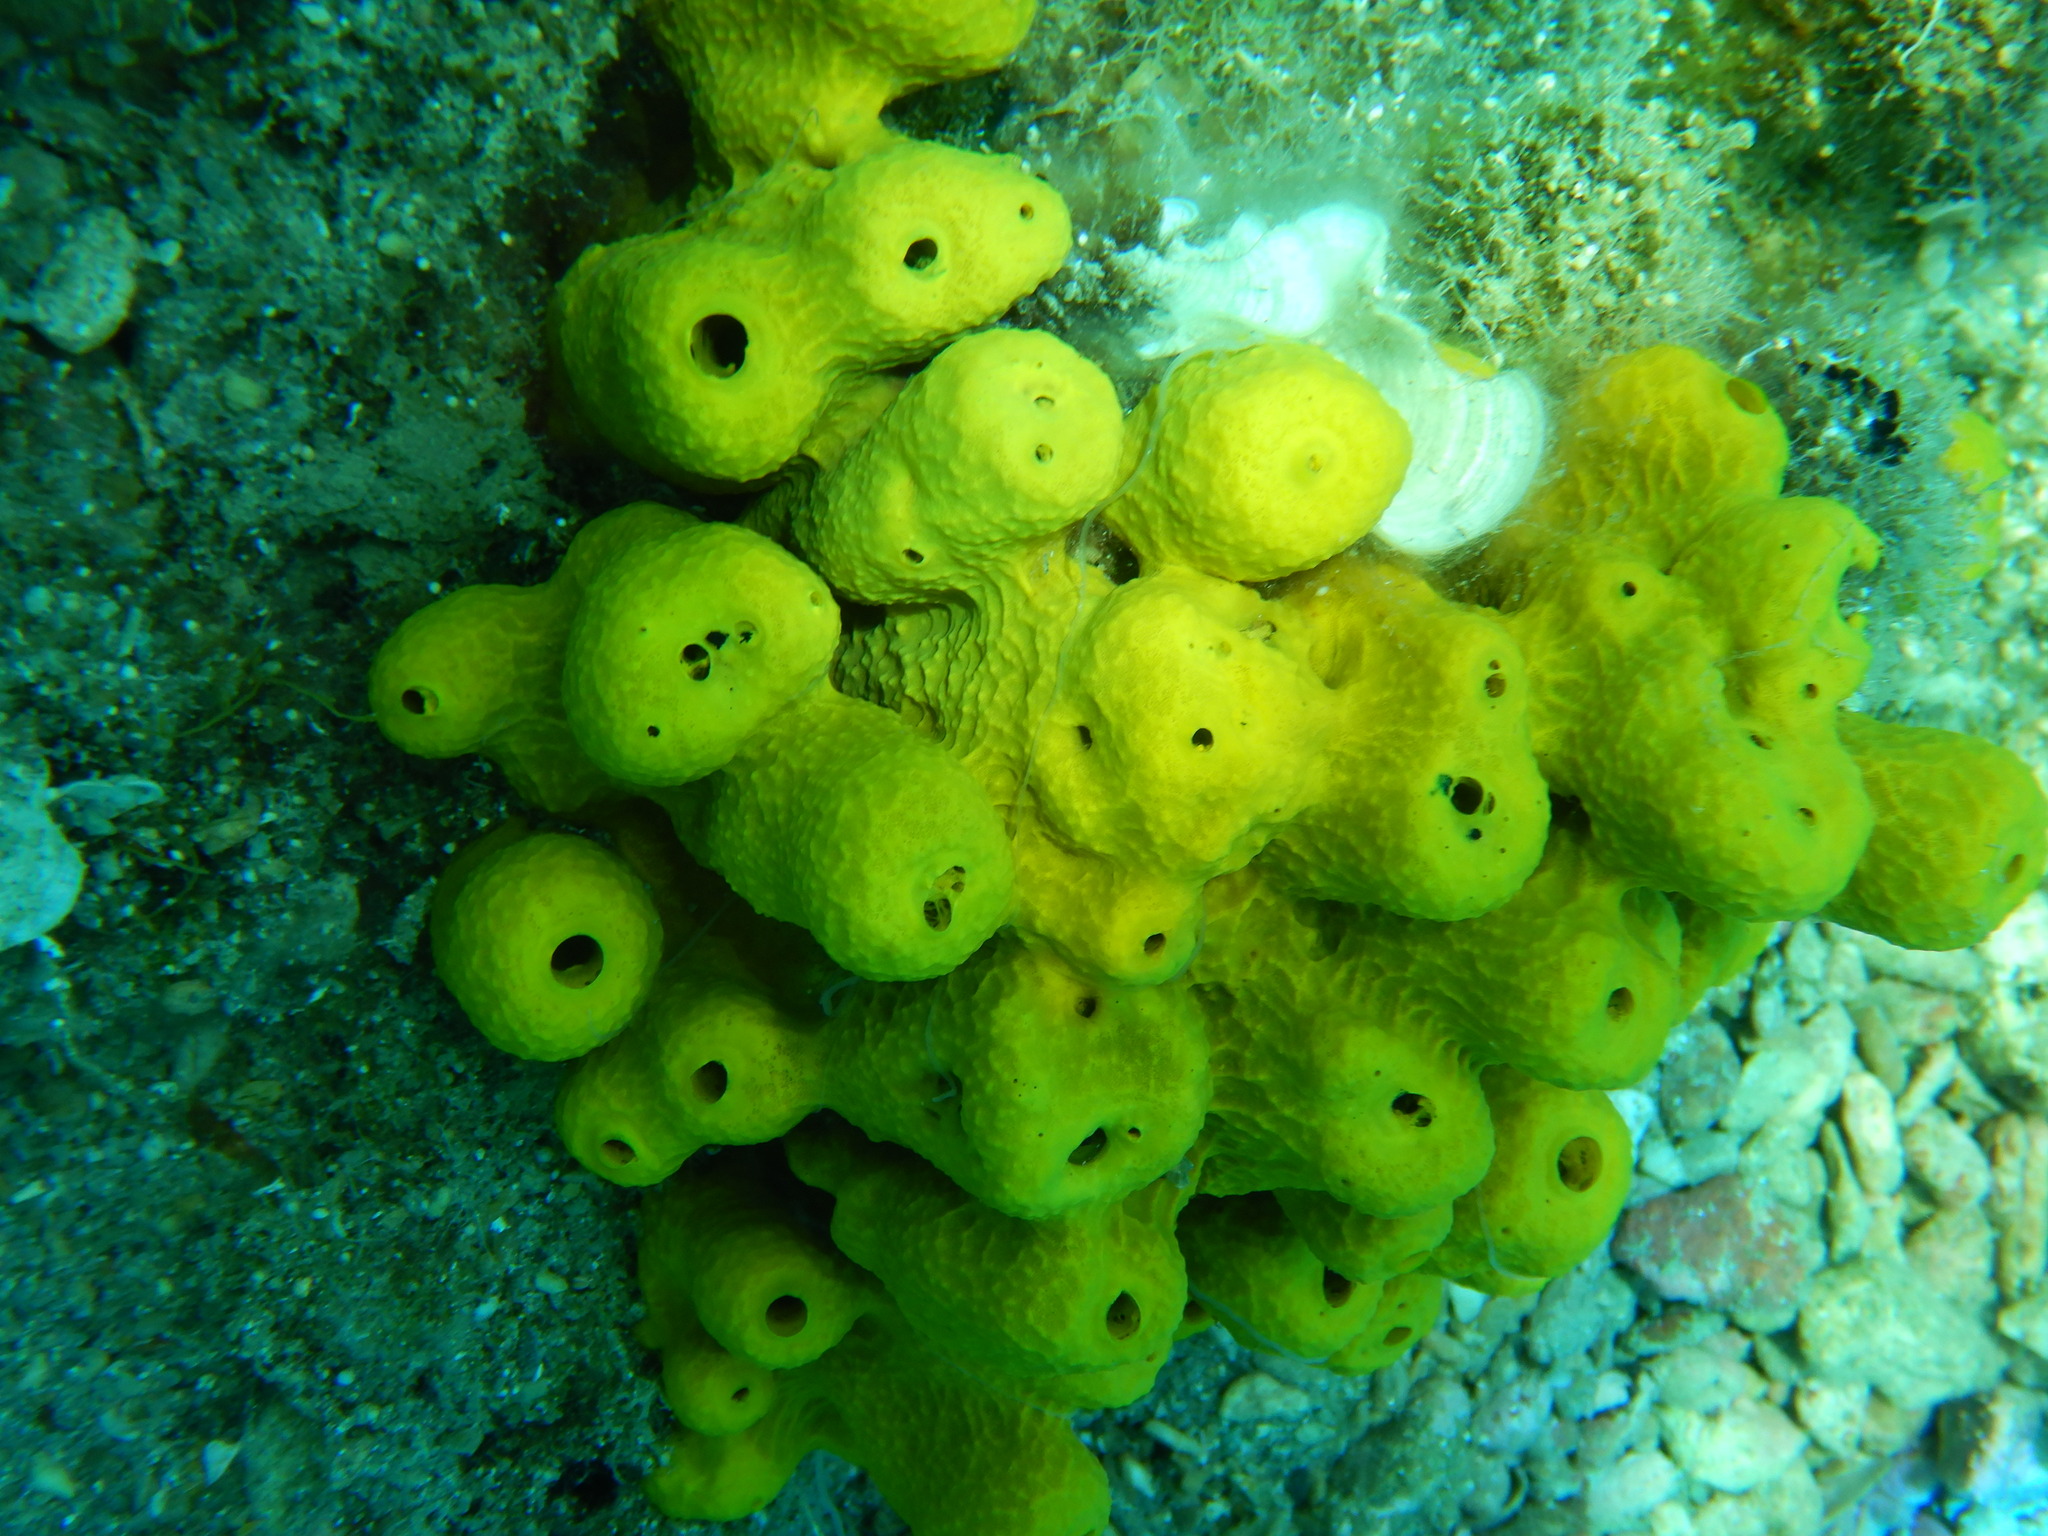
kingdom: Animalia
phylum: Porifera
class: Demospongiae
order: Verongiida
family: Aplysinidae
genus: Aplysina
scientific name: Aplysina aerophoba
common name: Aureate sponge
